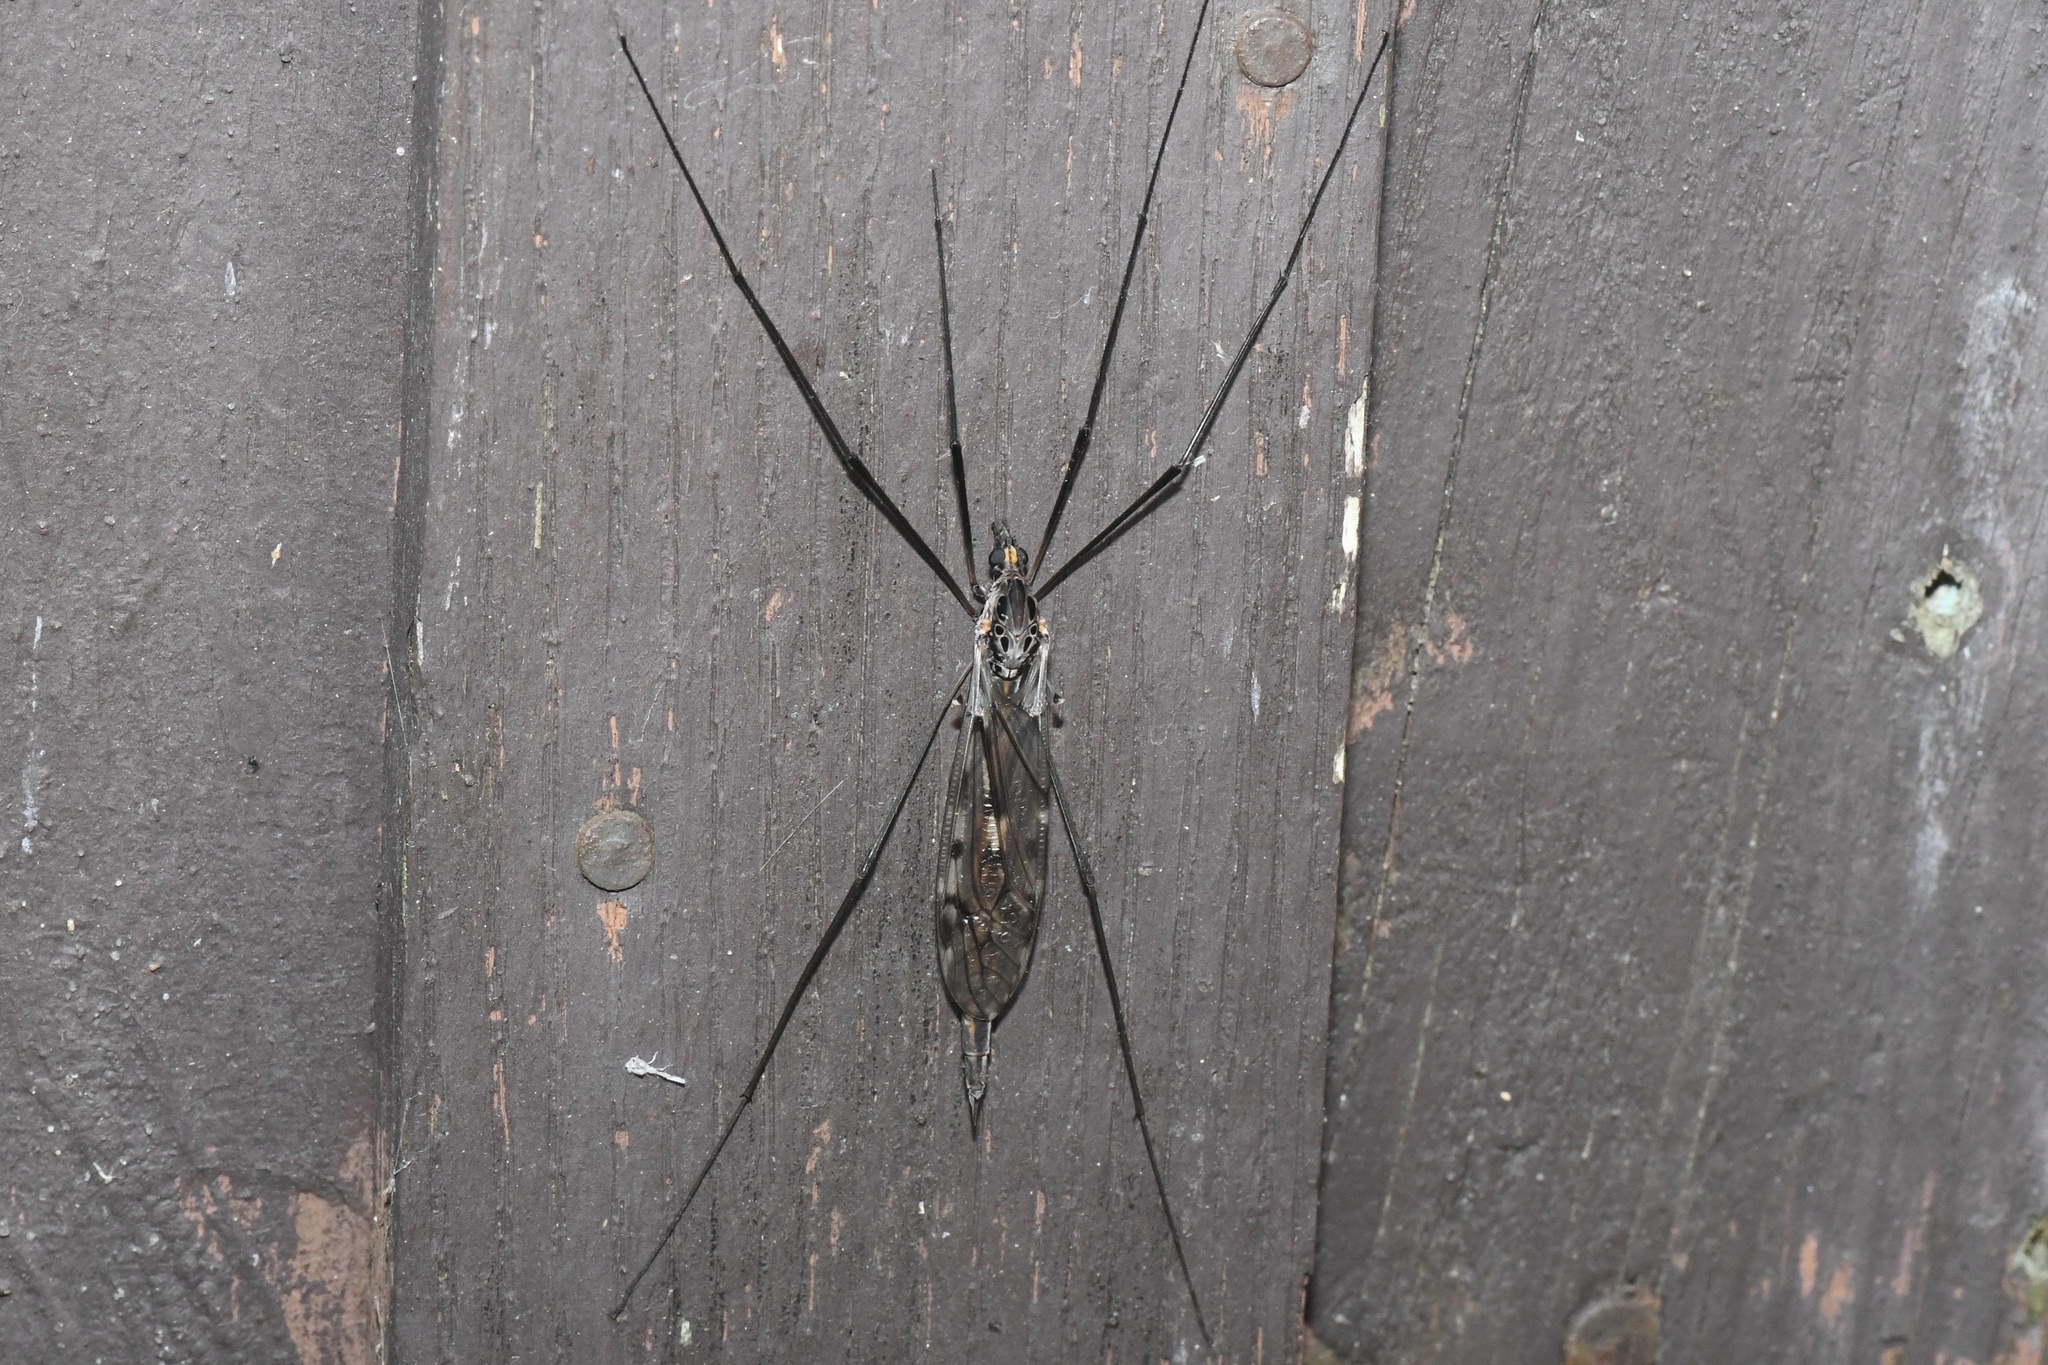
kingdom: Animalia
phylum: Arthropoda
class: Insecta
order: Diptera
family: Tipulidae
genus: Tipula
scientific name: Tipula metacomet
